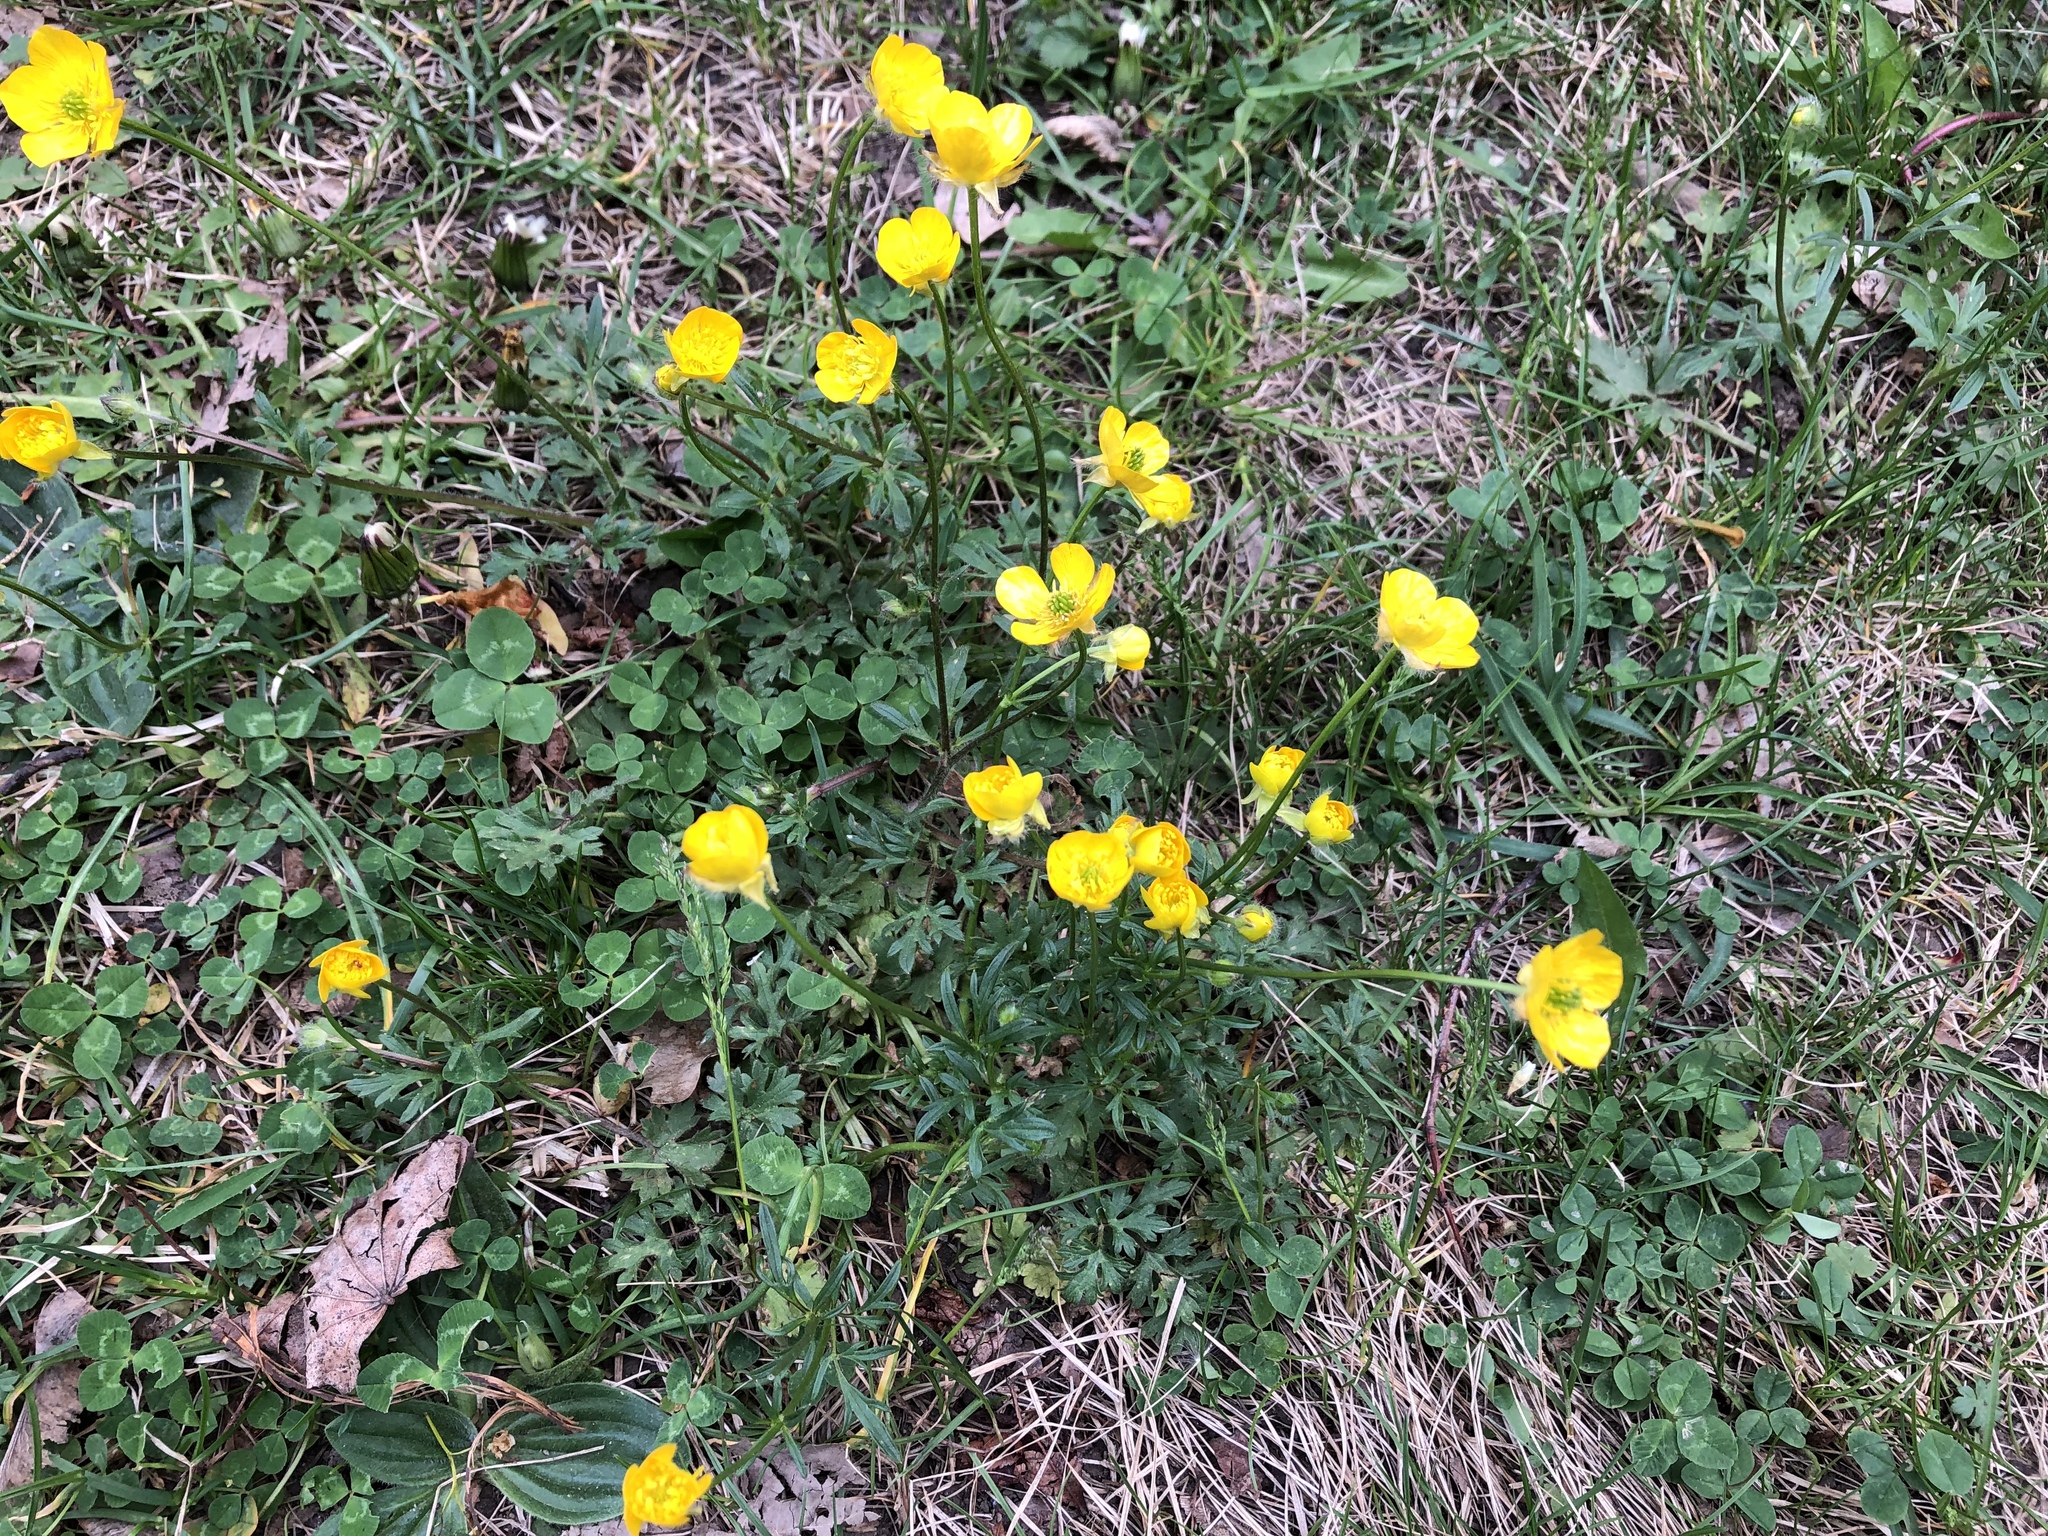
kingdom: Plantae
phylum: Tracheophyta
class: Magnoliopsida
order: Ranunculales
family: Ranunculaceae
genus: Ranunculus
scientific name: Ranunculus bulbosus
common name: Bulbous buttercup
